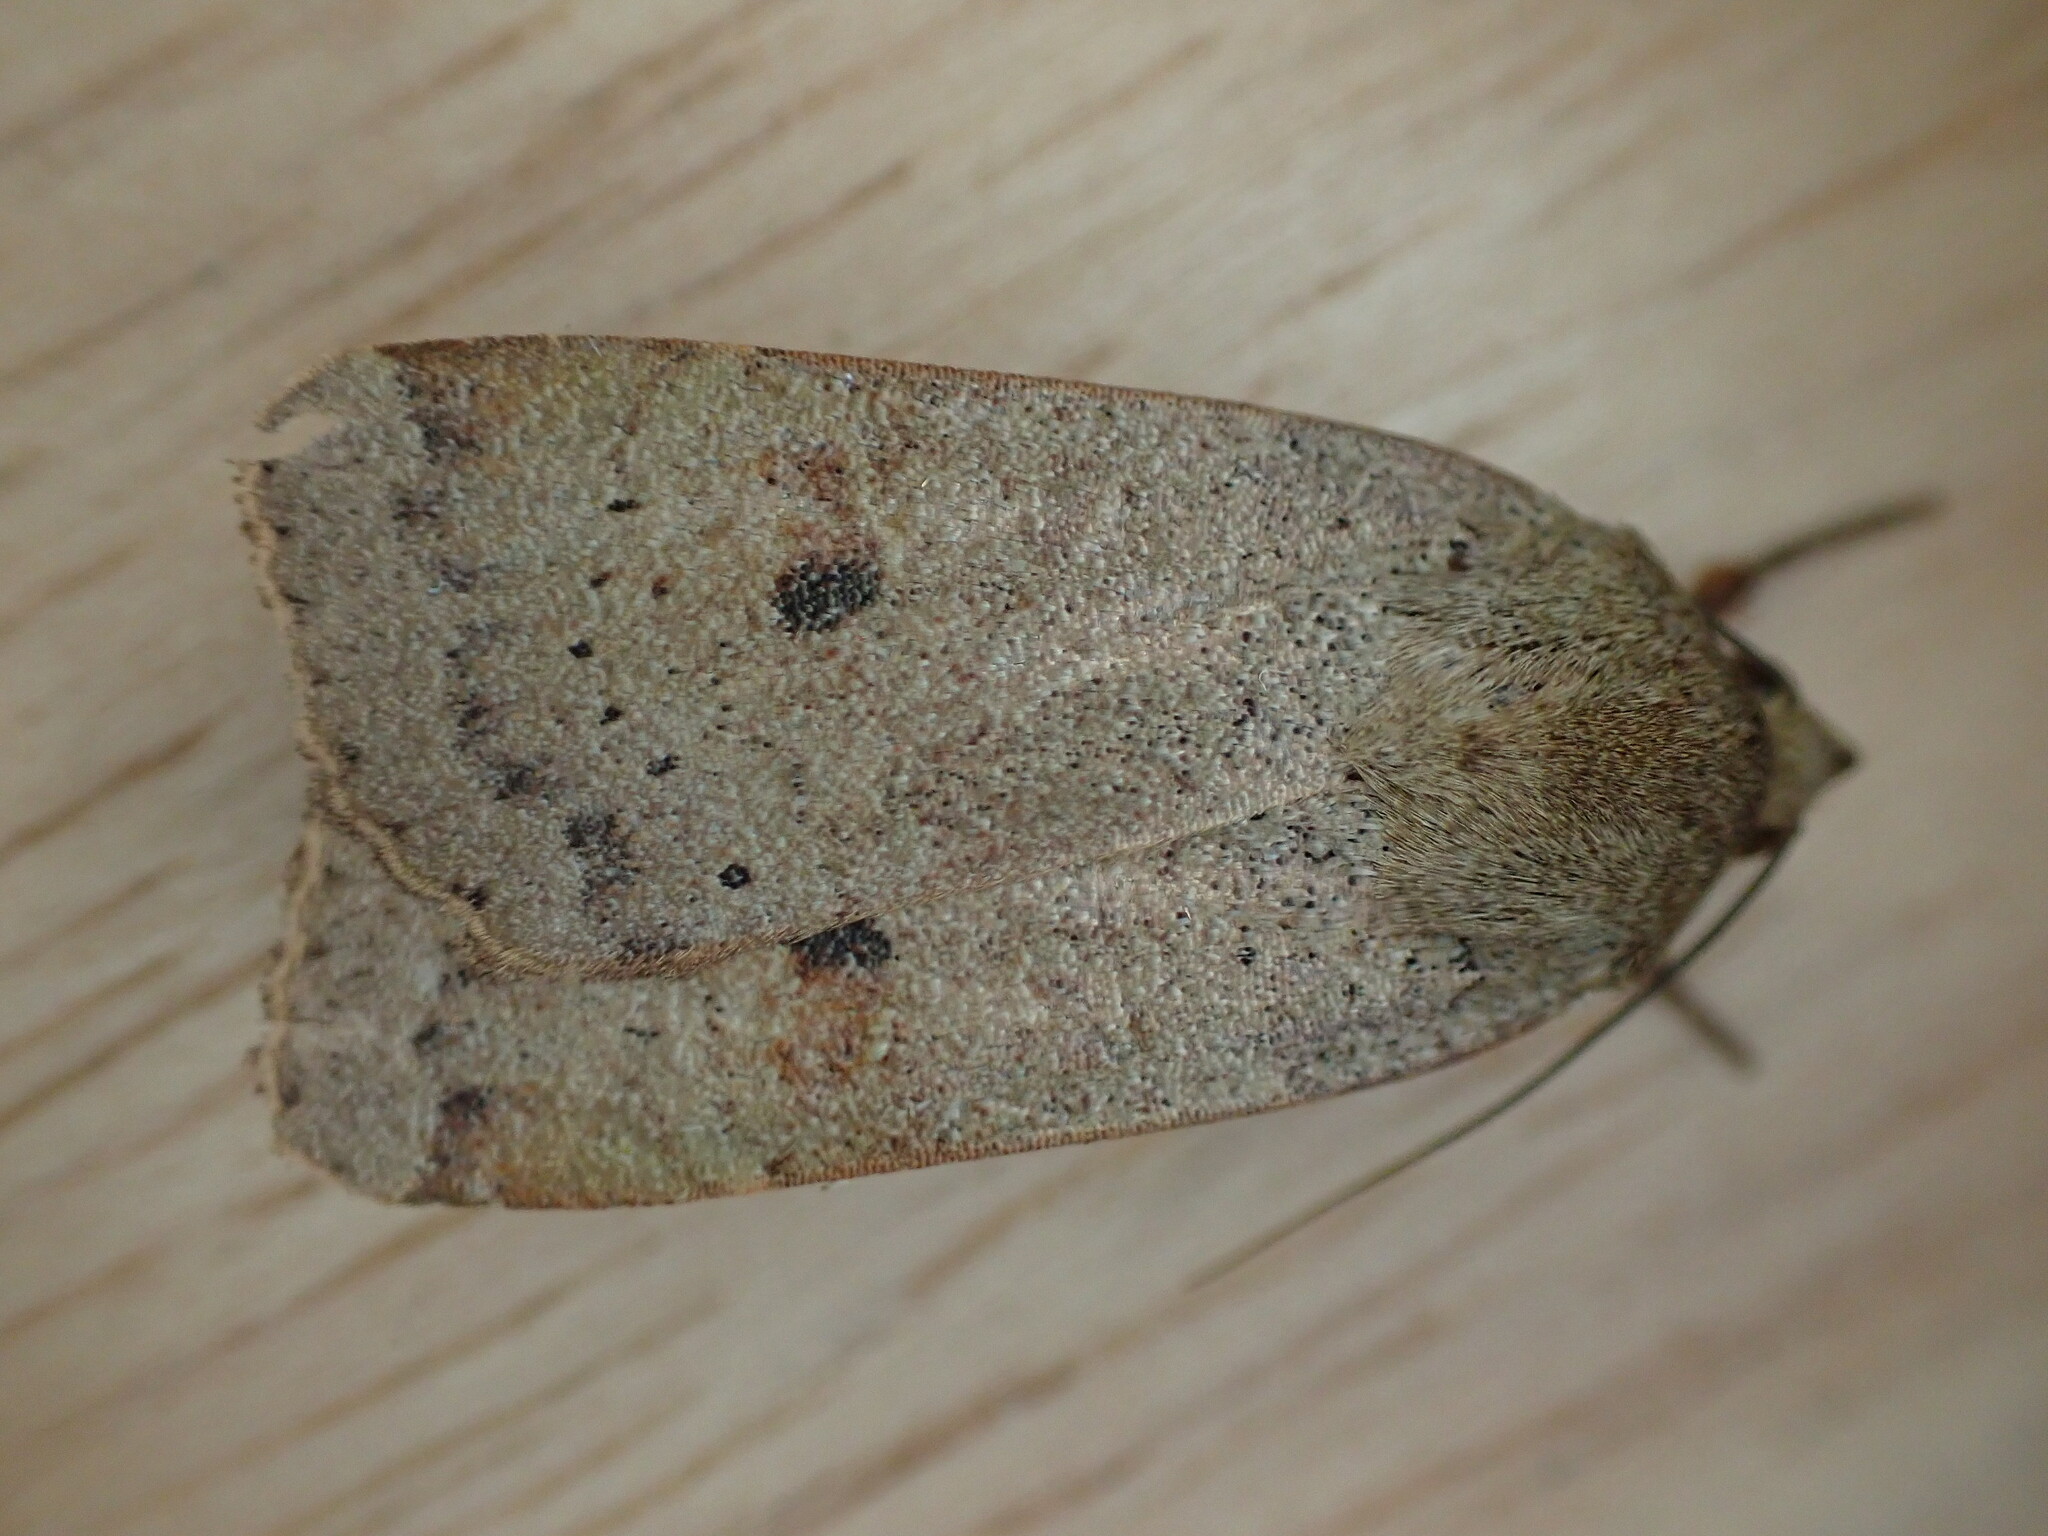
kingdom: Animalia
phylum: Arthropoda
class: Insecta
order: Lepidoptera
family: Noctuidae
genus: Noctua
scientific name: Noctua comes
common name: Lesser yellow underwing
